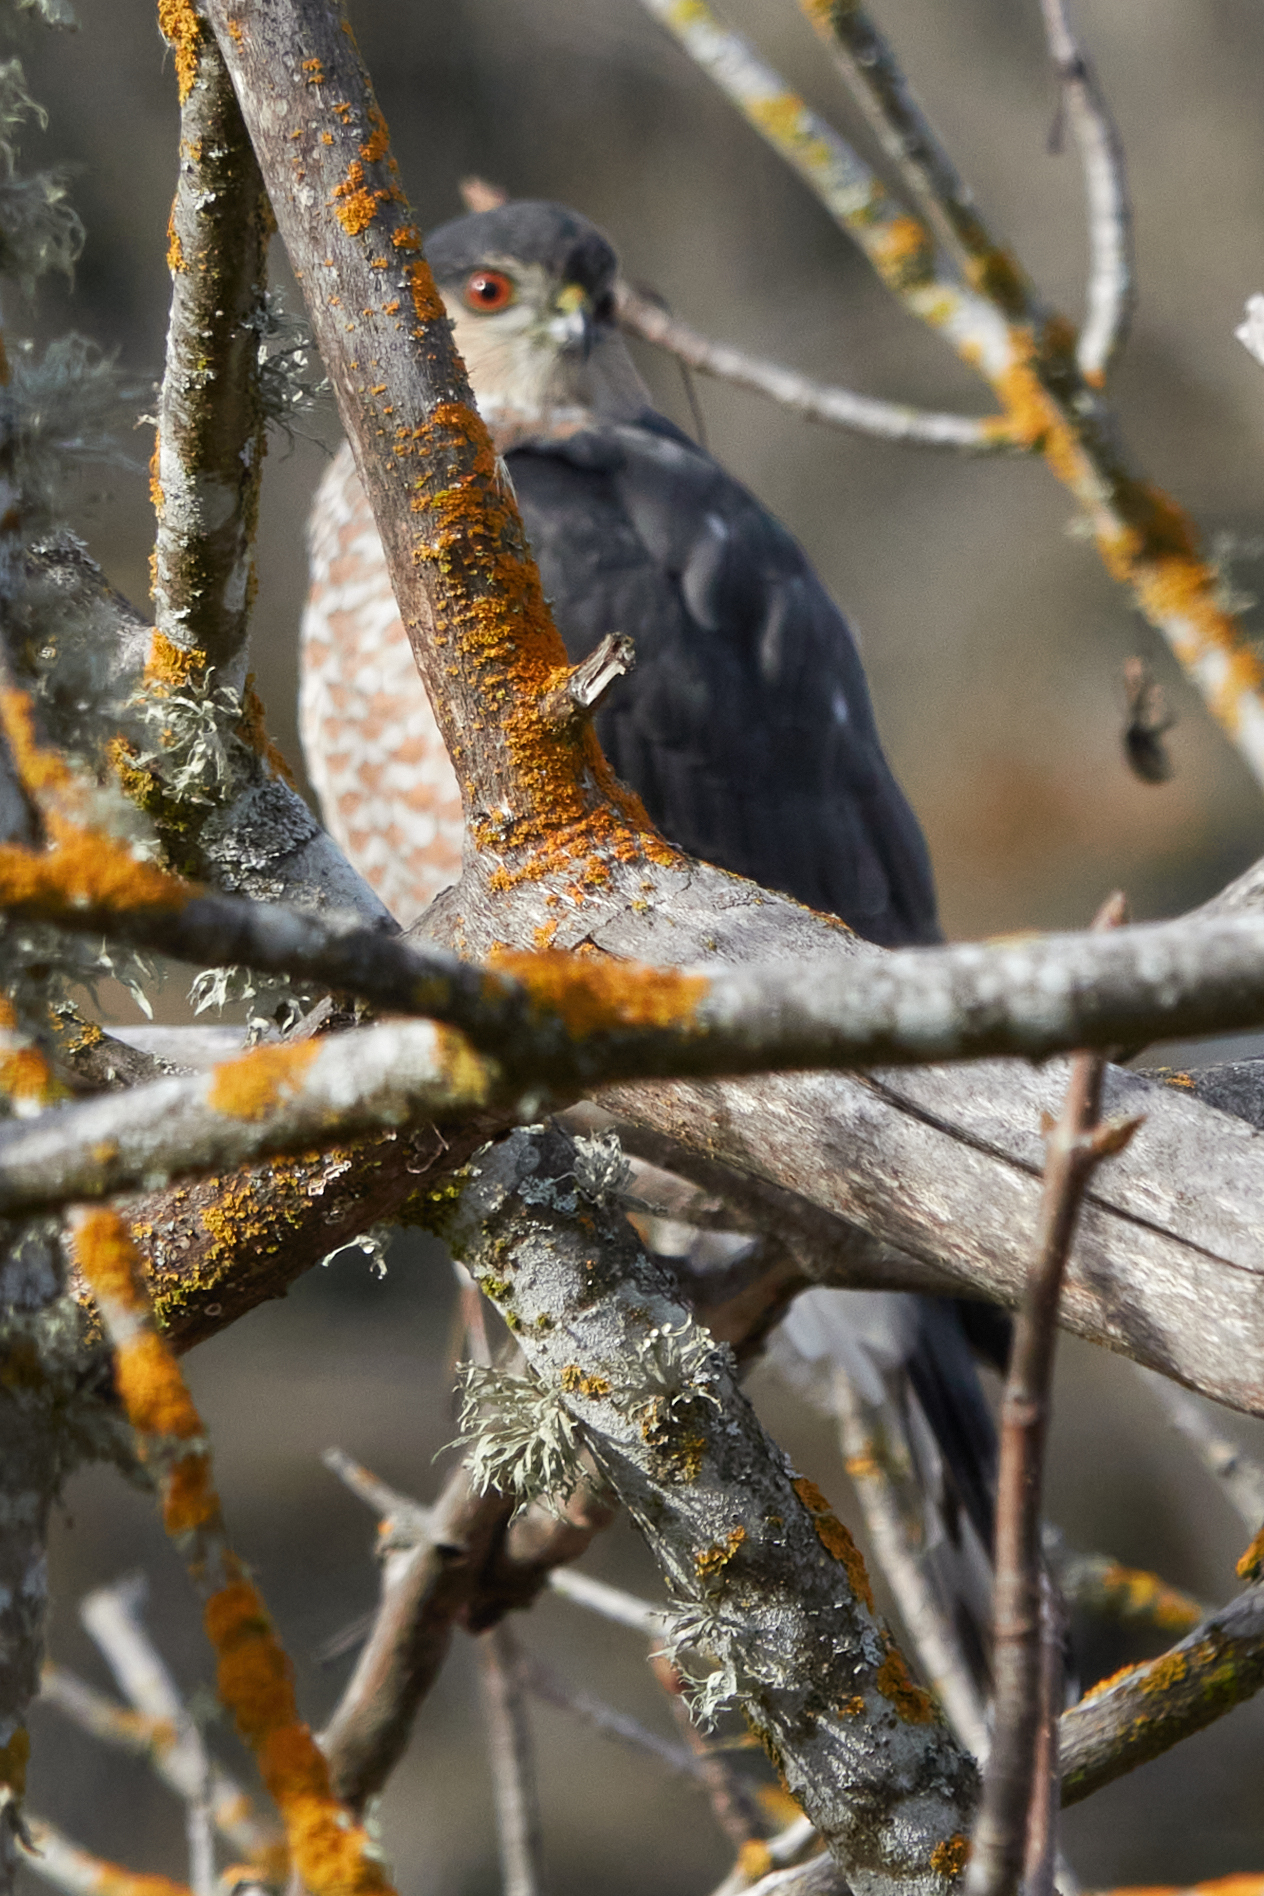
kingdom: Animalia
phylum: Chordata
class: Aves
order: Accipitriformes
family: Accipitridae
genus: Accipiter
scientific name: Accipiter striatus
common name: Sharp-shinned hawk
